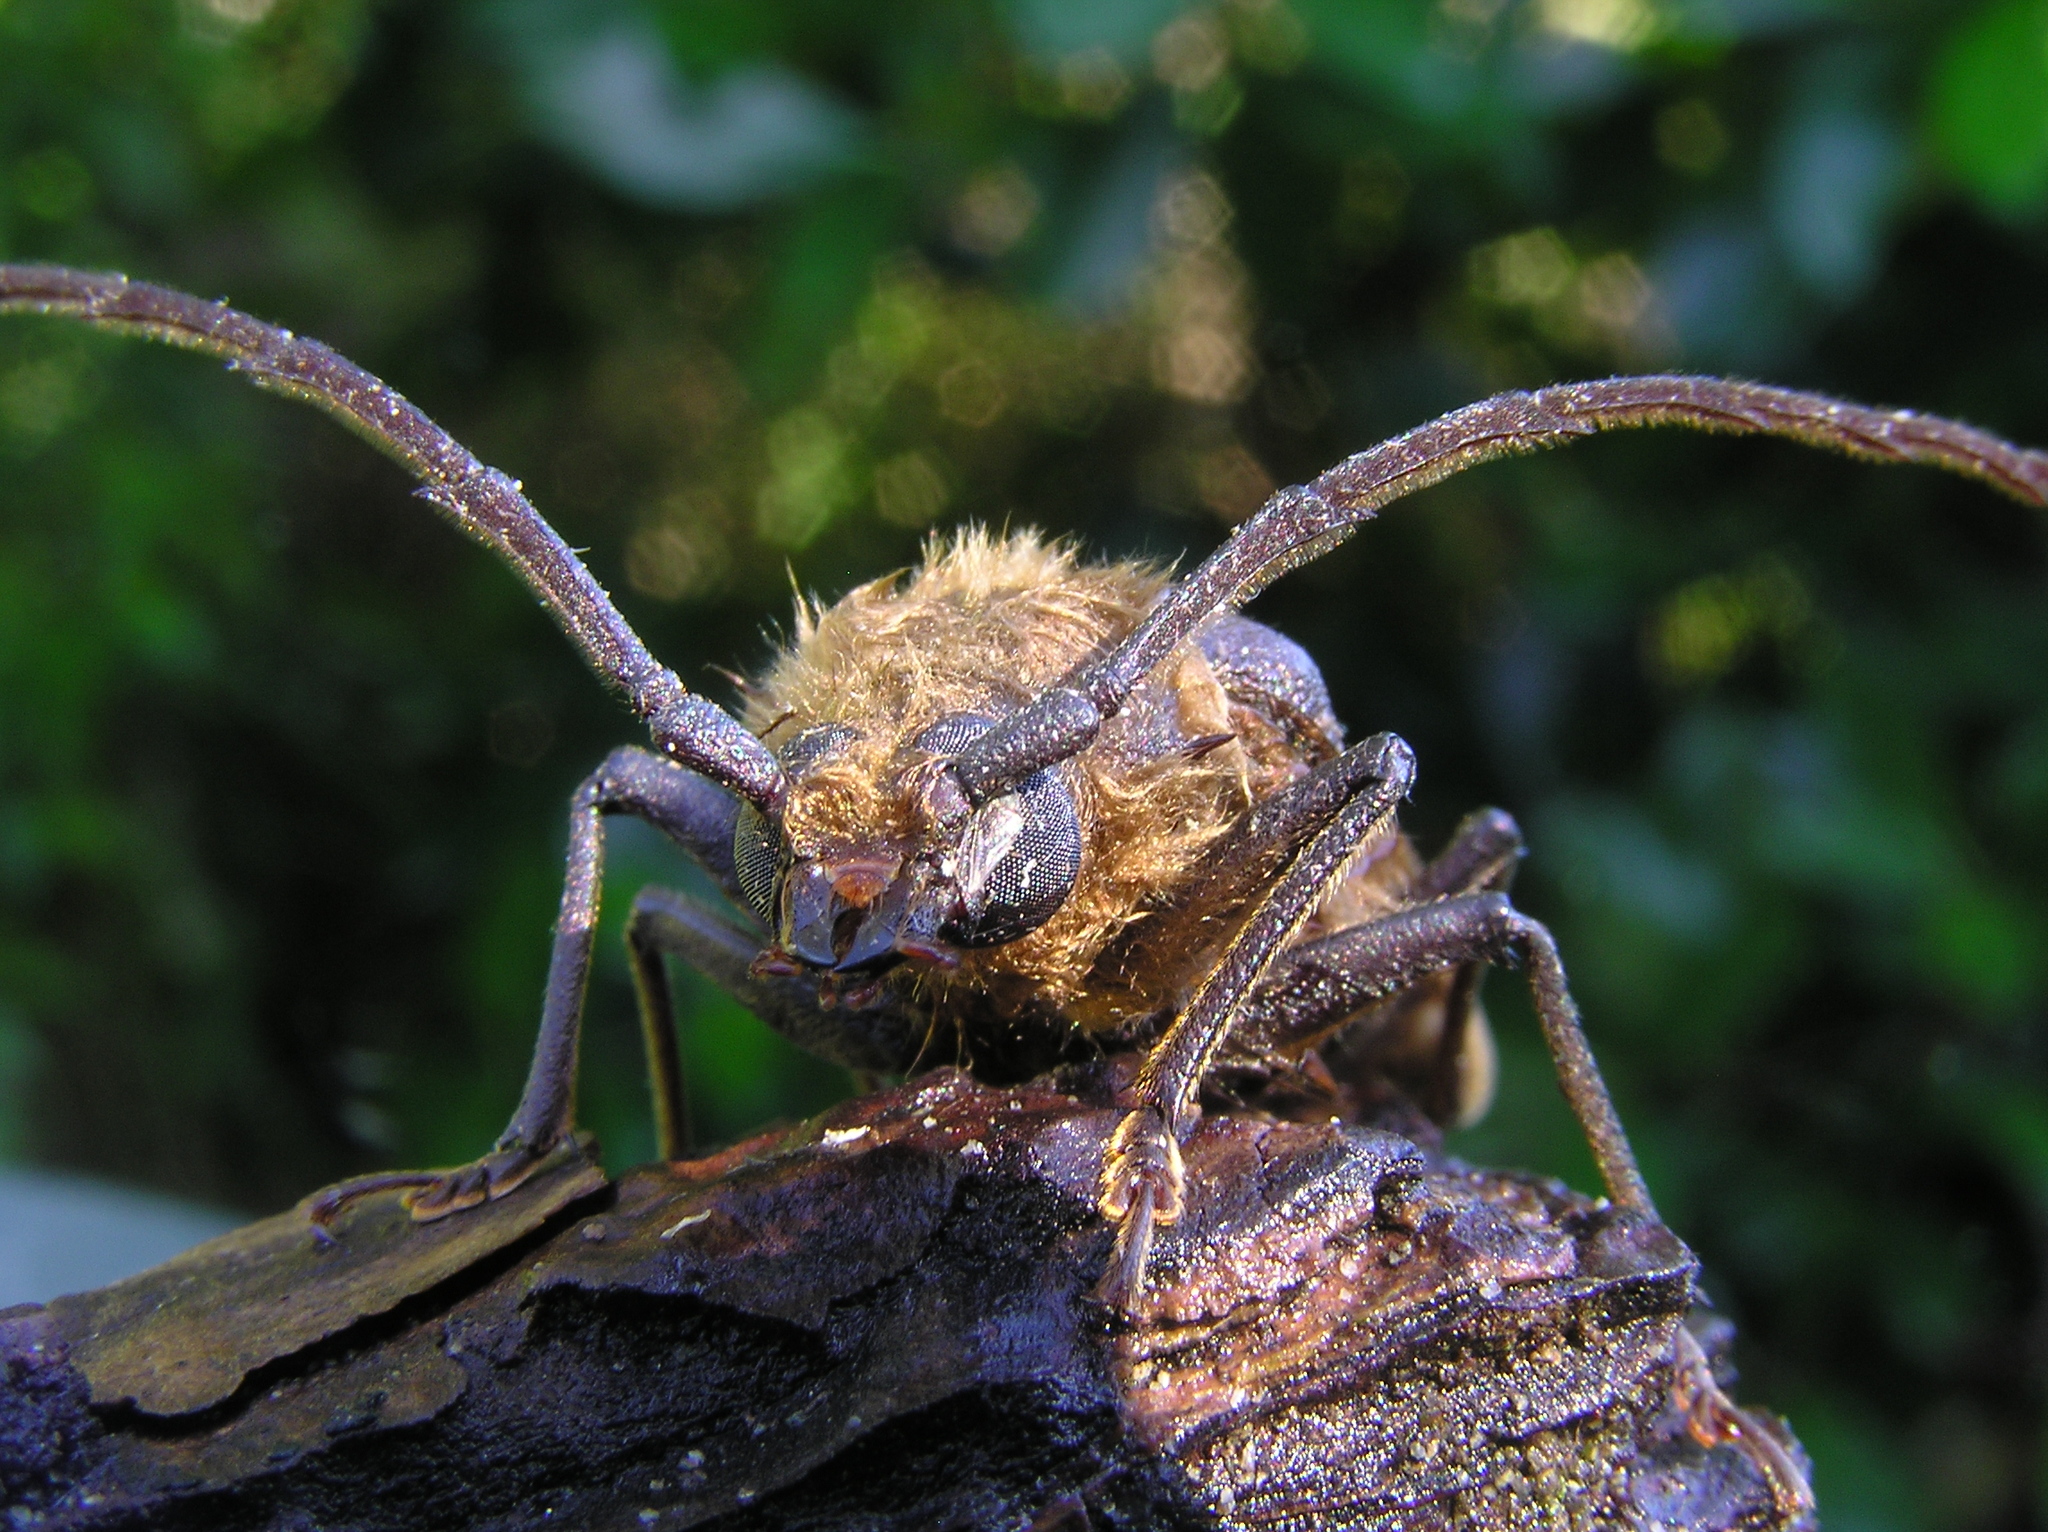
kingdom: Animalia
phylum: Arthropoda
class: Insecta
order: Coleoptera
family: Cerambycidae
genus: Prionoplus
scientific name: Prionoplus reticularis
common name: Huhu beetle
